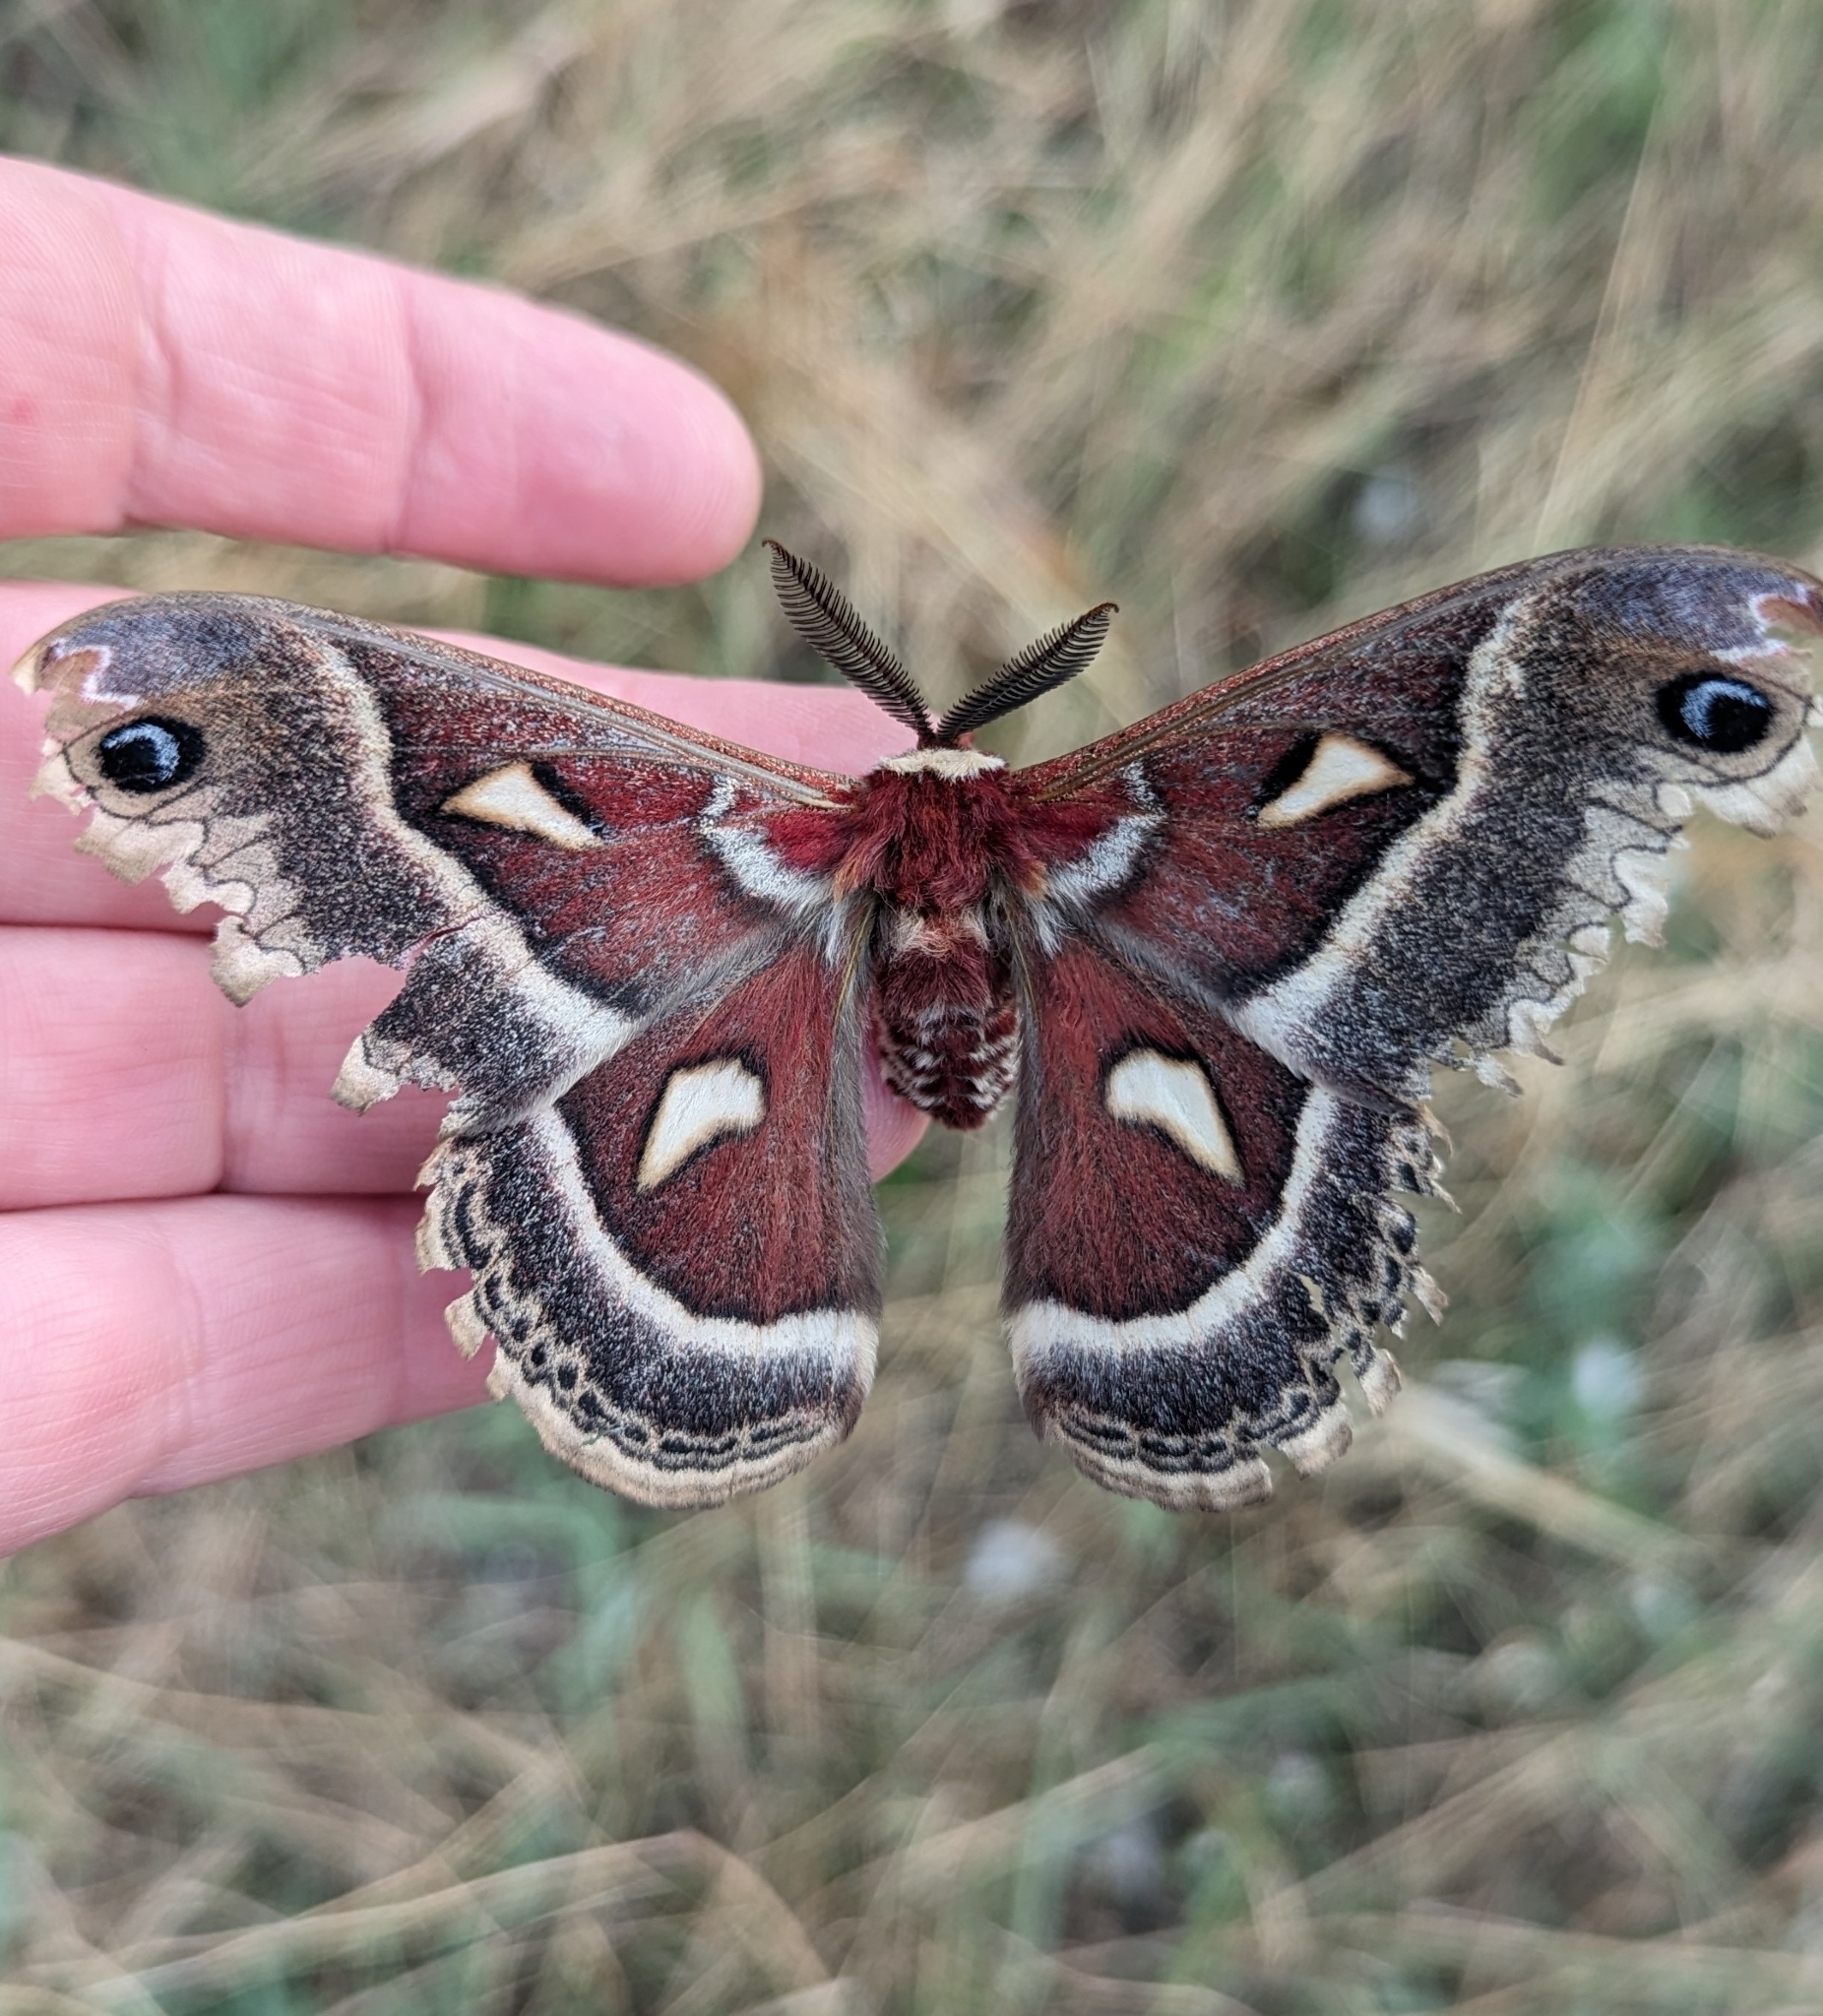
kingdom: Animalia
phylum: Arthropoda
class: Insecta
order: Lepidoptera
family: Saturniidae
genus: Hyalophora
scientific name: Hyalophora gloveri
